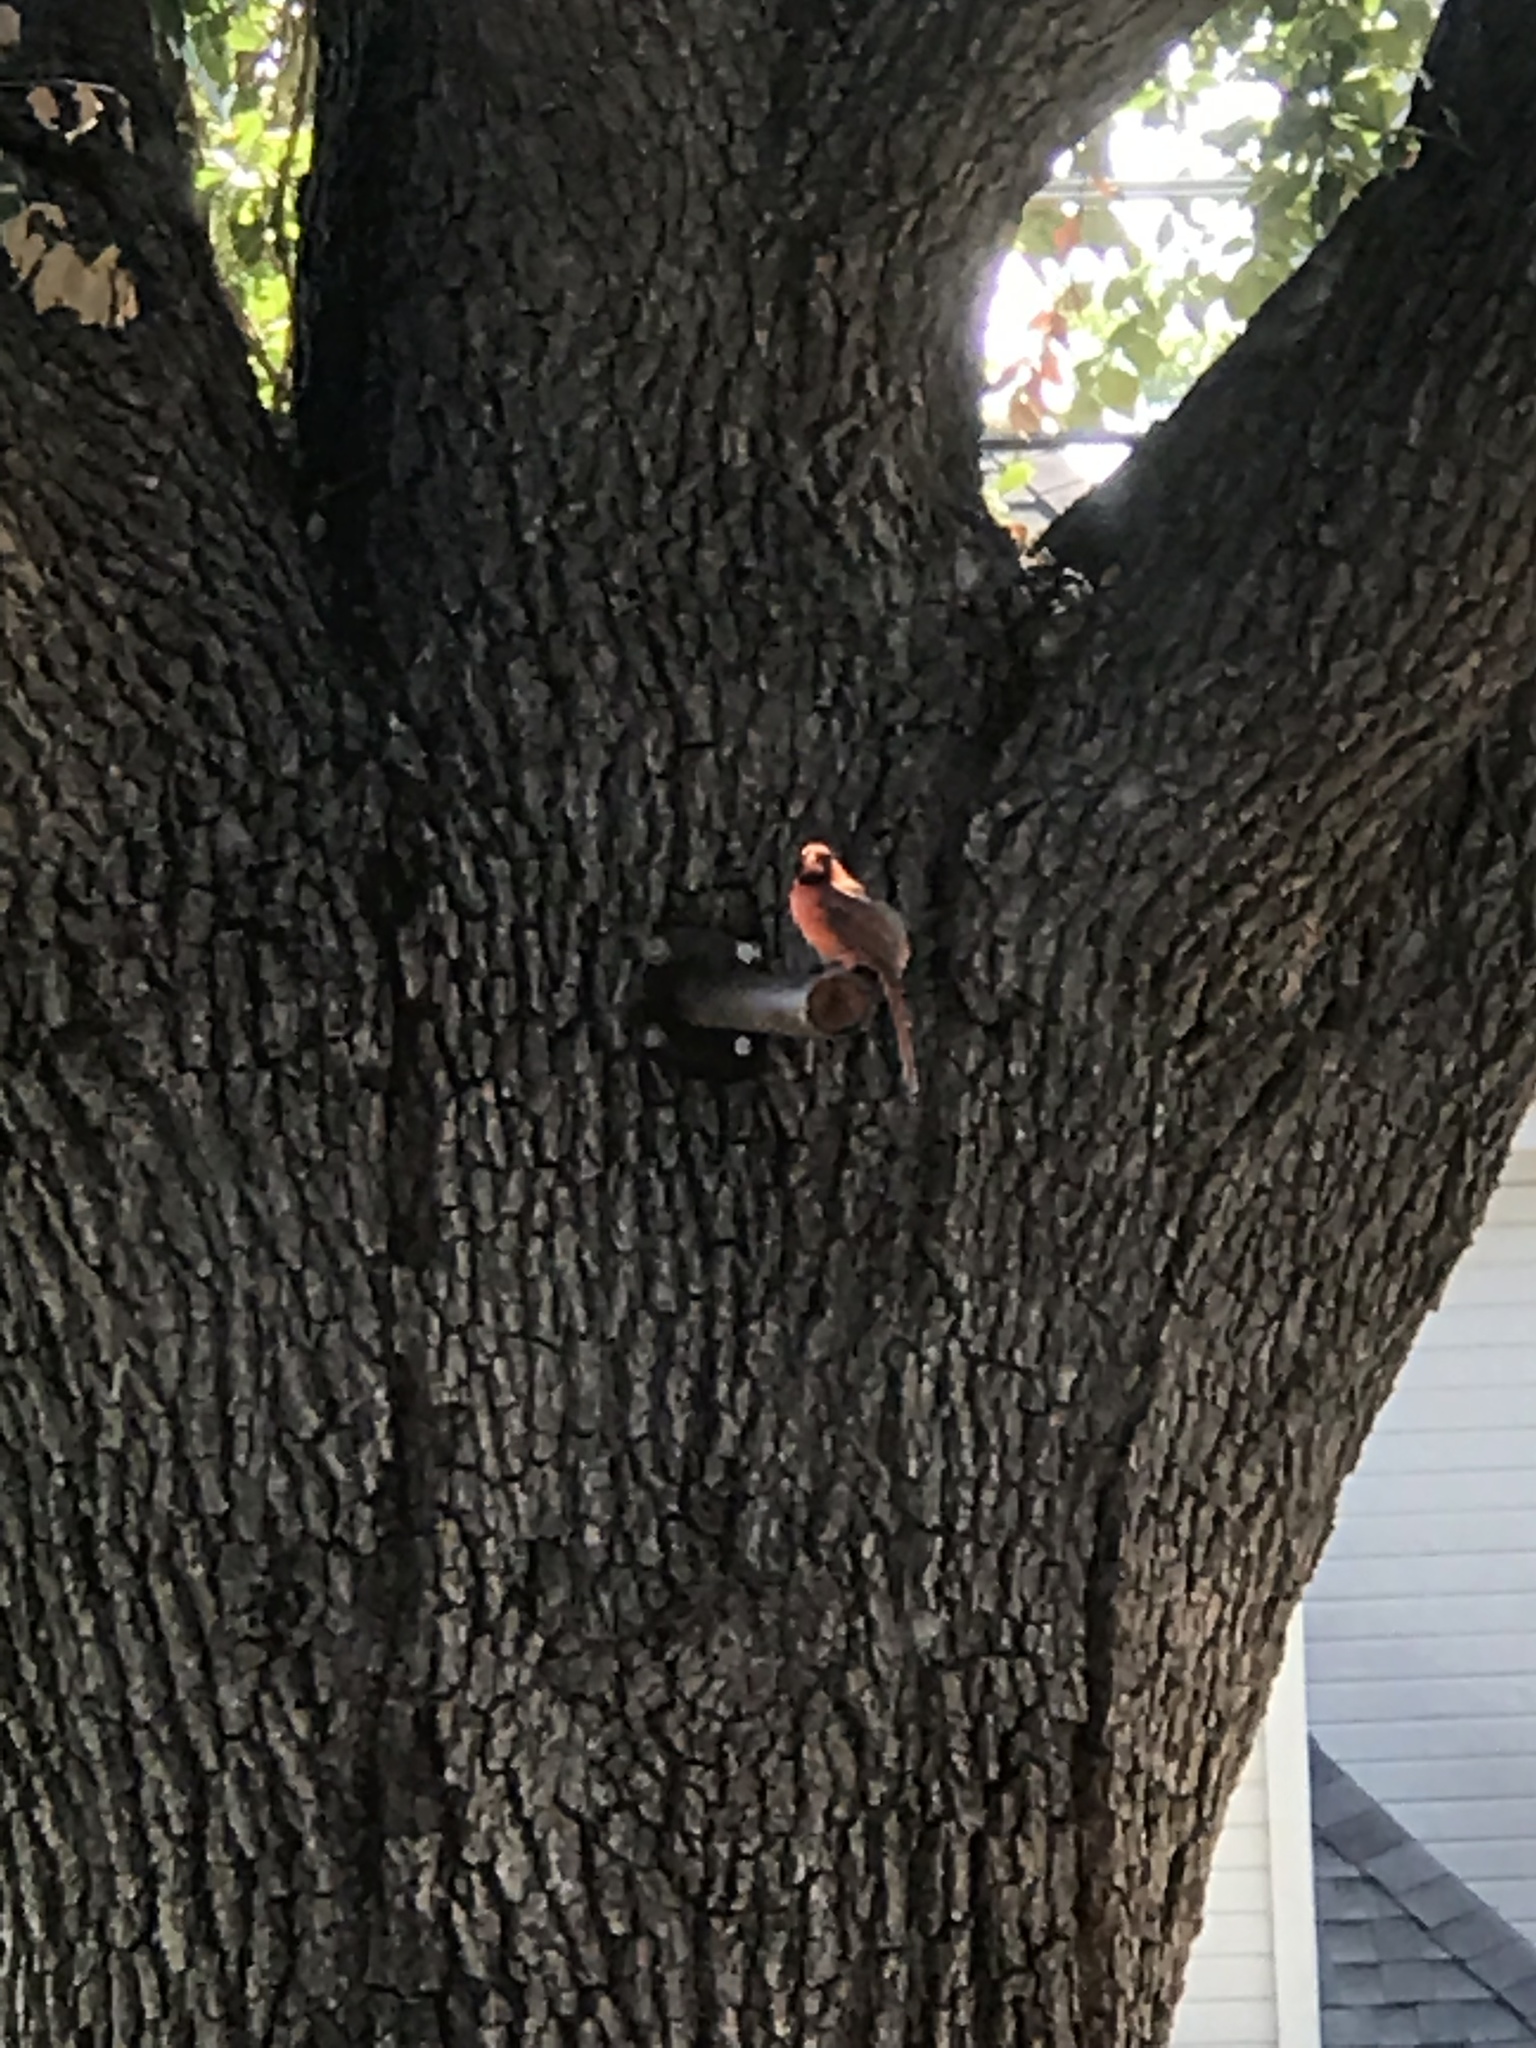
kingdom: Animalia
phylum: Chordata
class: Aves
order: Passeriformes
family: Cardinalidae
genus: Cardinalis
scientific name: Cardinalis cardinalis
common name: Northern cardinal
